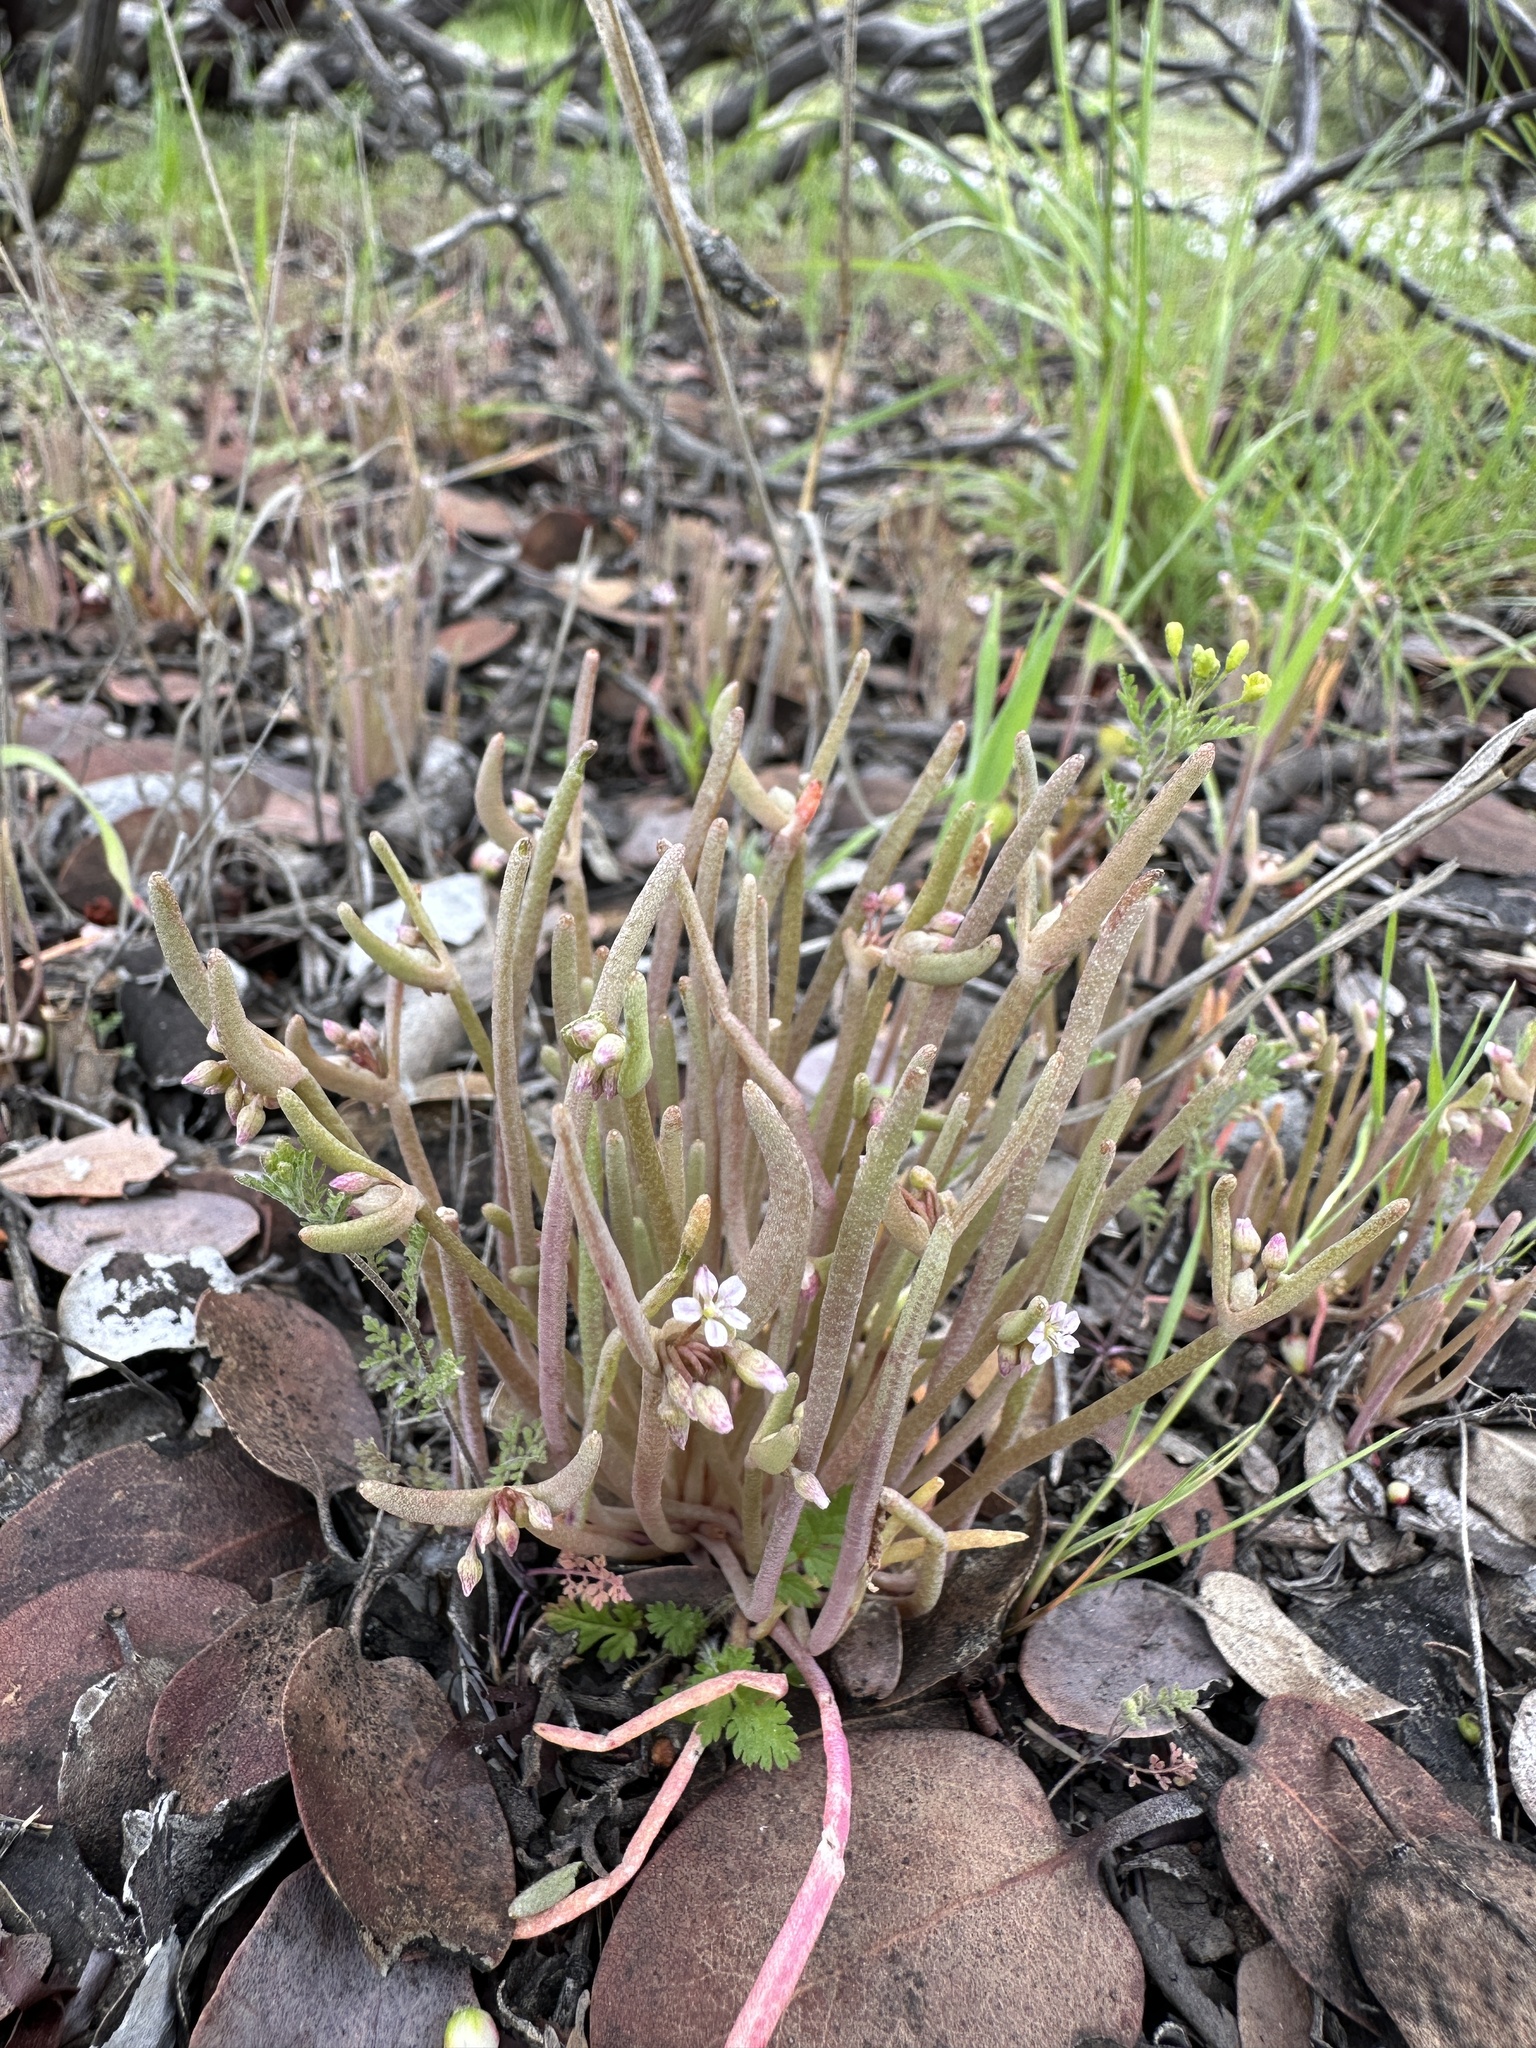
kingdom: Plantae
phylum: Tracheophyta
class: Magnoliopsida
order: Caryophyllales
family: Montiaceae
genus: Claytonia
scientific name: Claytonia exigua
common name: Pale spring beauty
